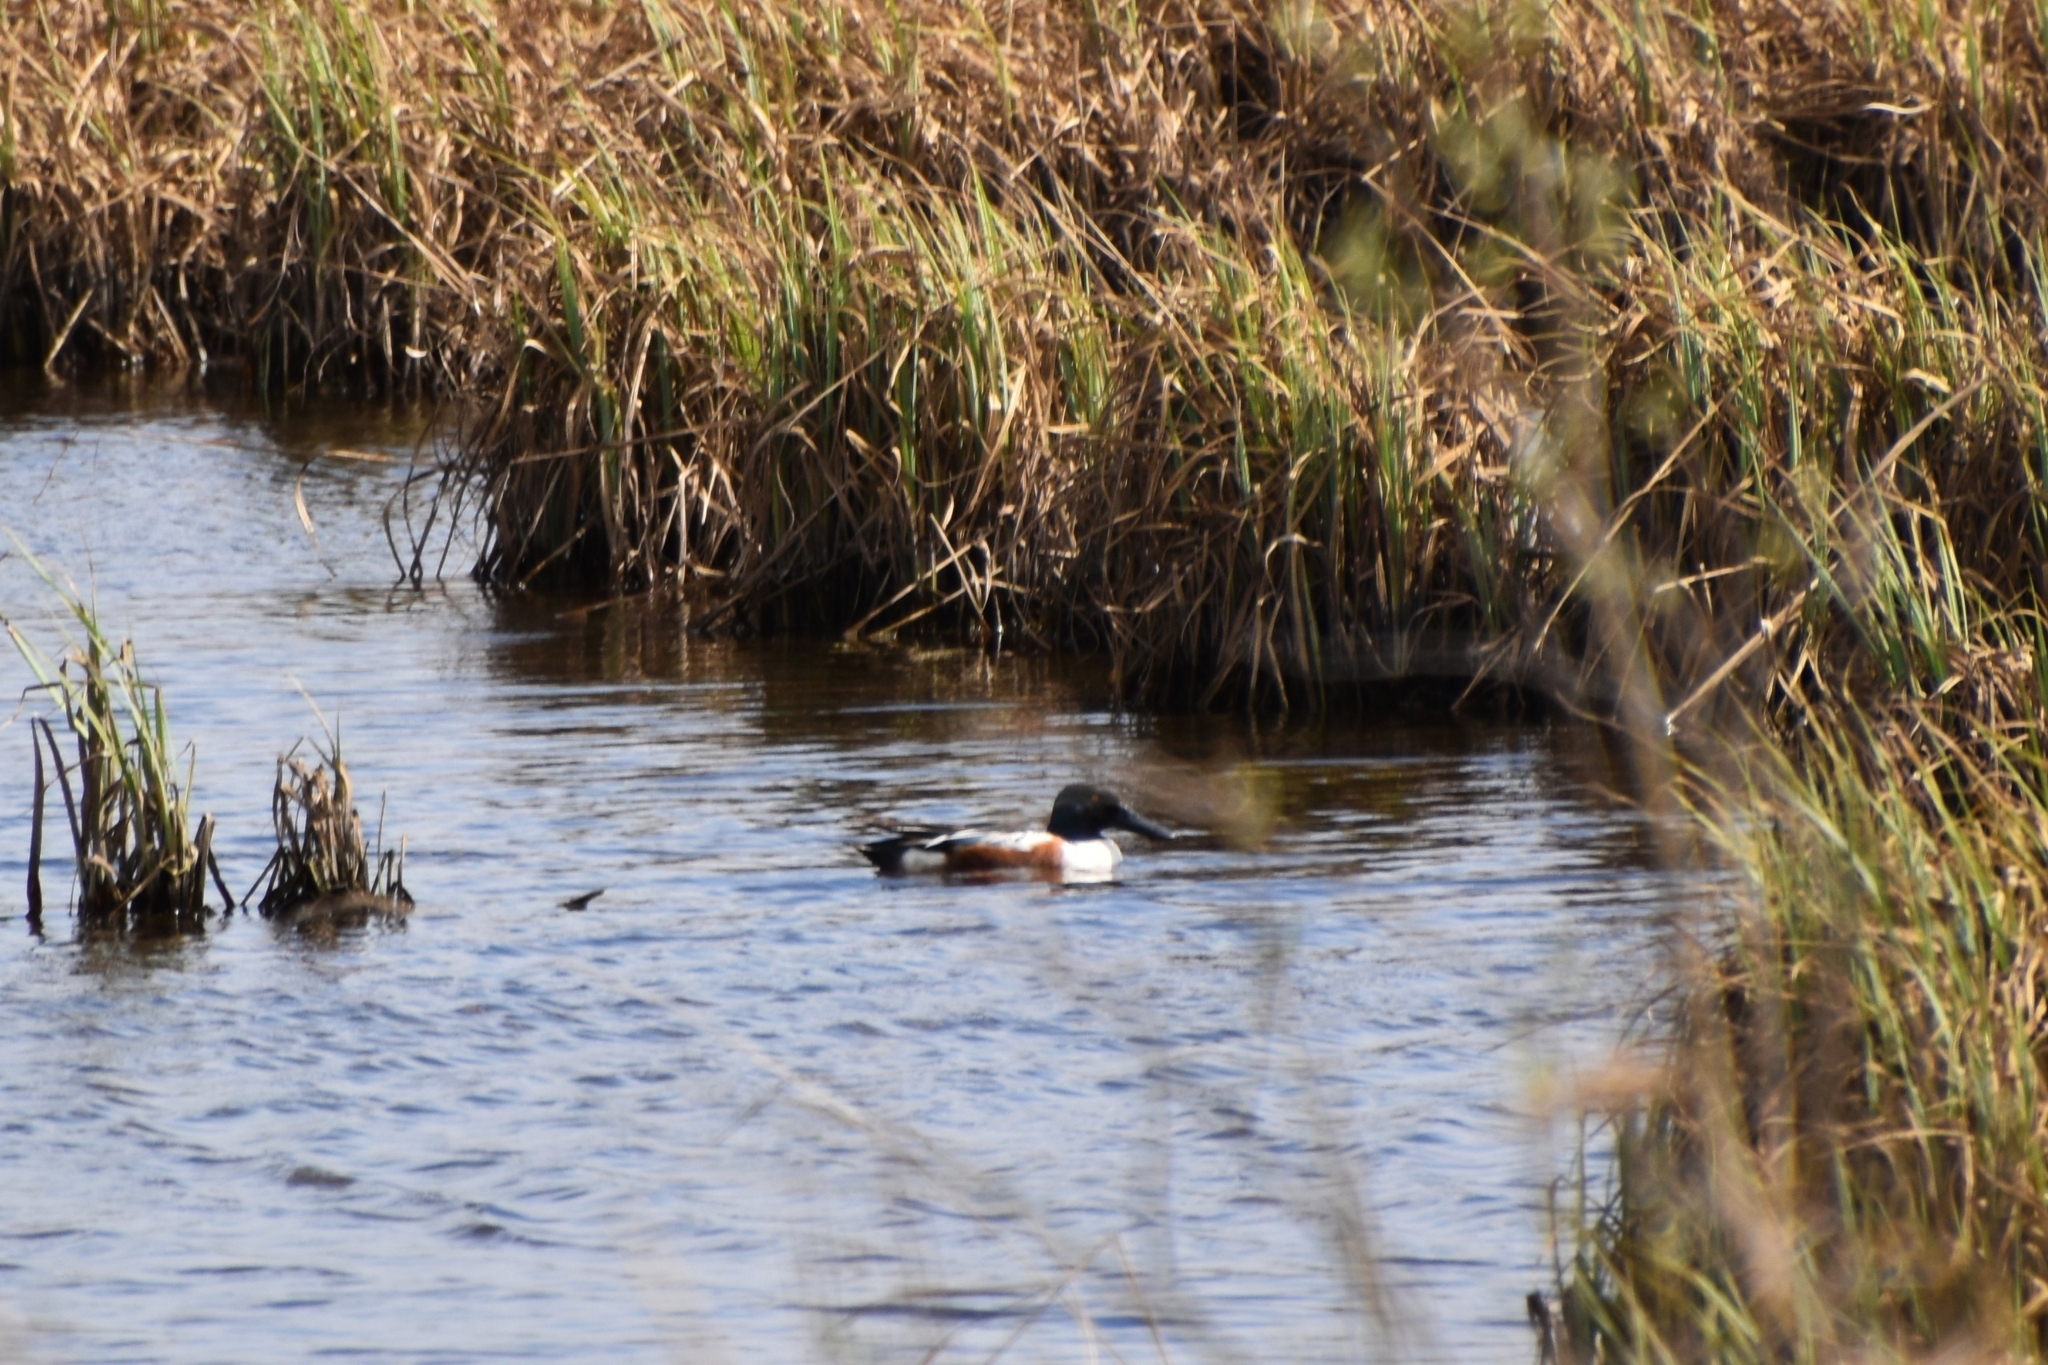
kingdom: Animalia
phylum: Chordata
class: Aves
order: Anseriformes
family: Anatidae
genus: Spatula
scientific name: Spatula clypeata
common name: Northern shoveler
